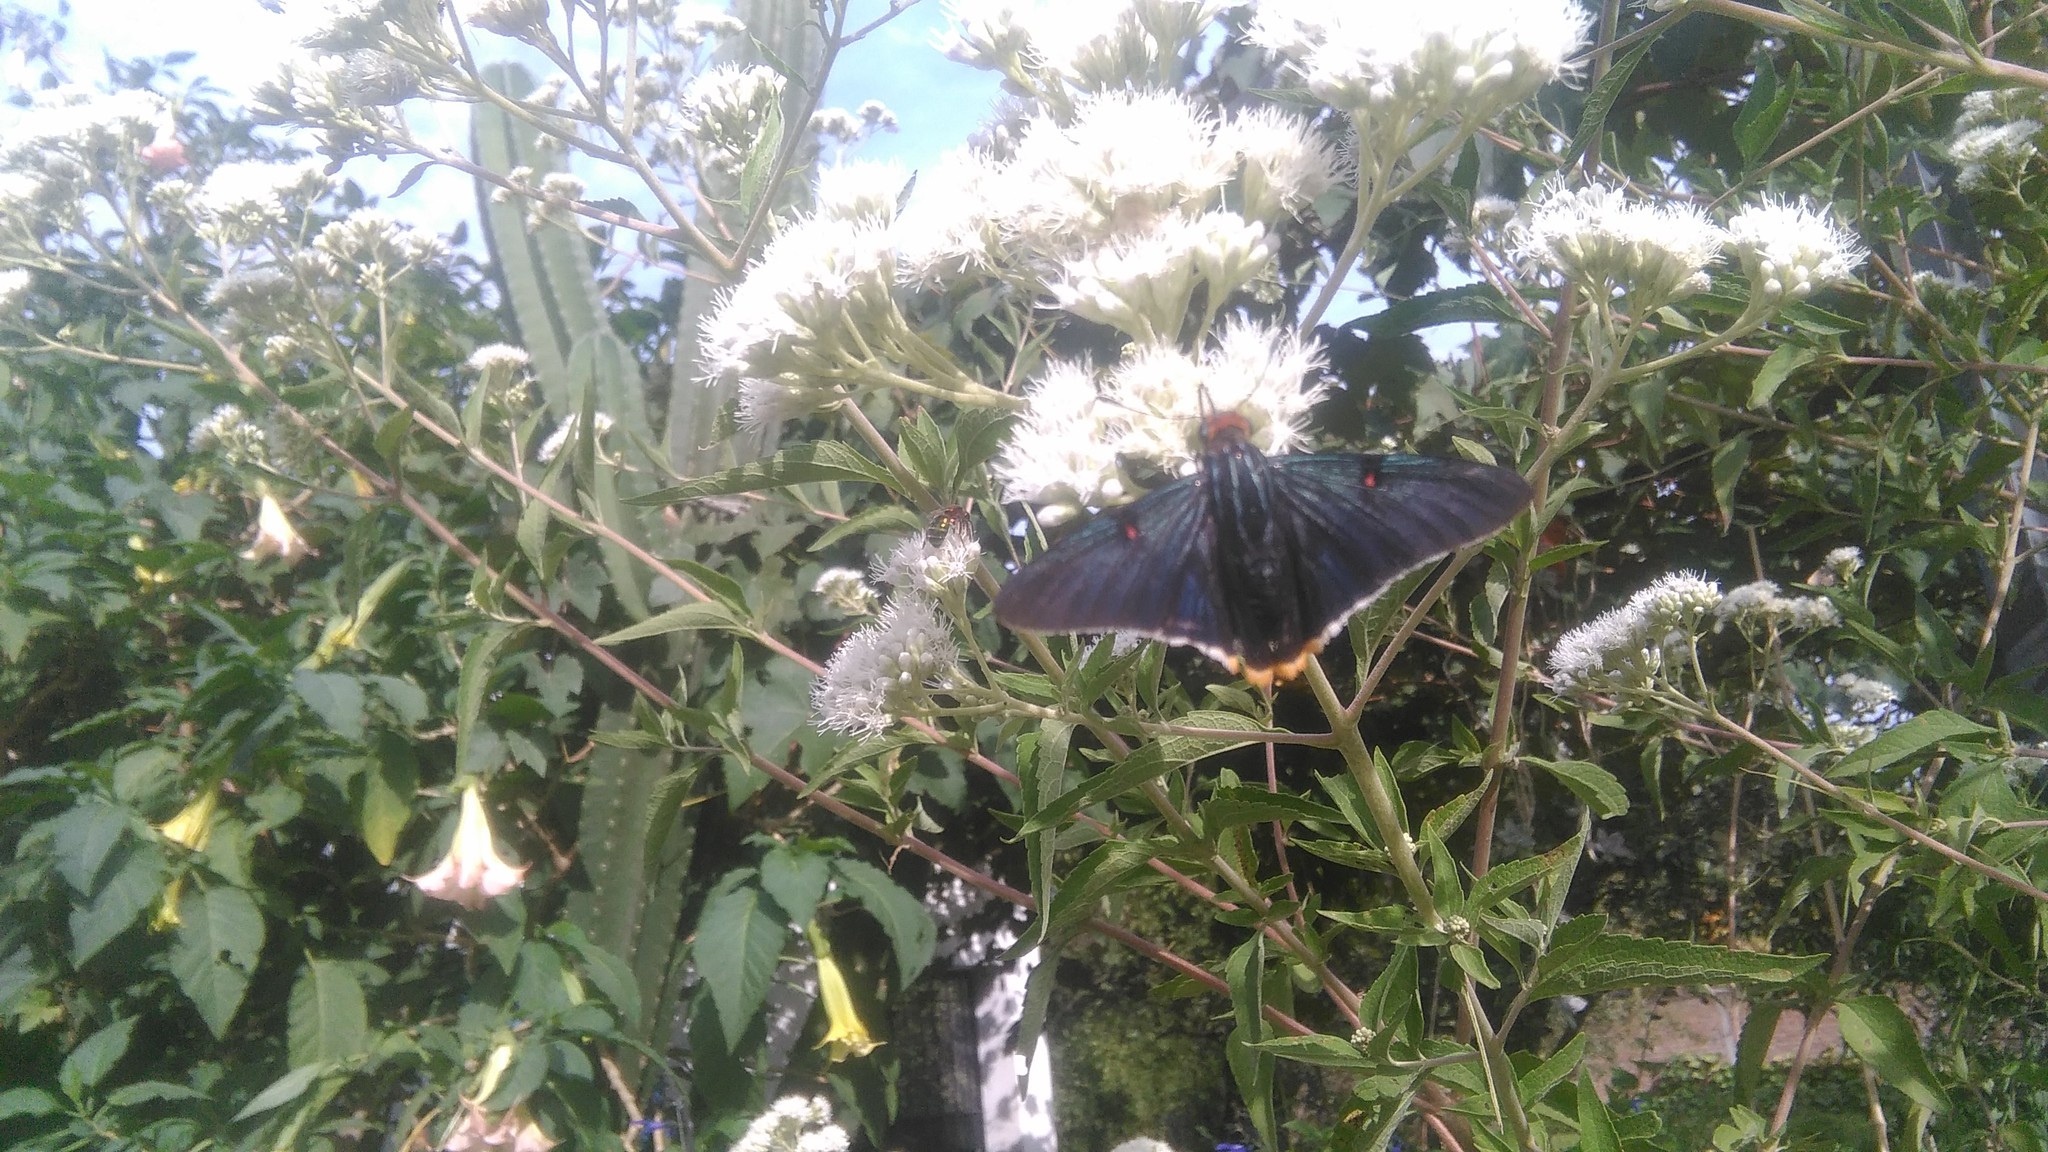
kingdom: Animalia
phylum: Arthropoda
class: Insecta
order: Lepidoptera
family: Hesperiidae
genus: Phocides
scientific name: Phocides polybius
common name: Guava skipper
